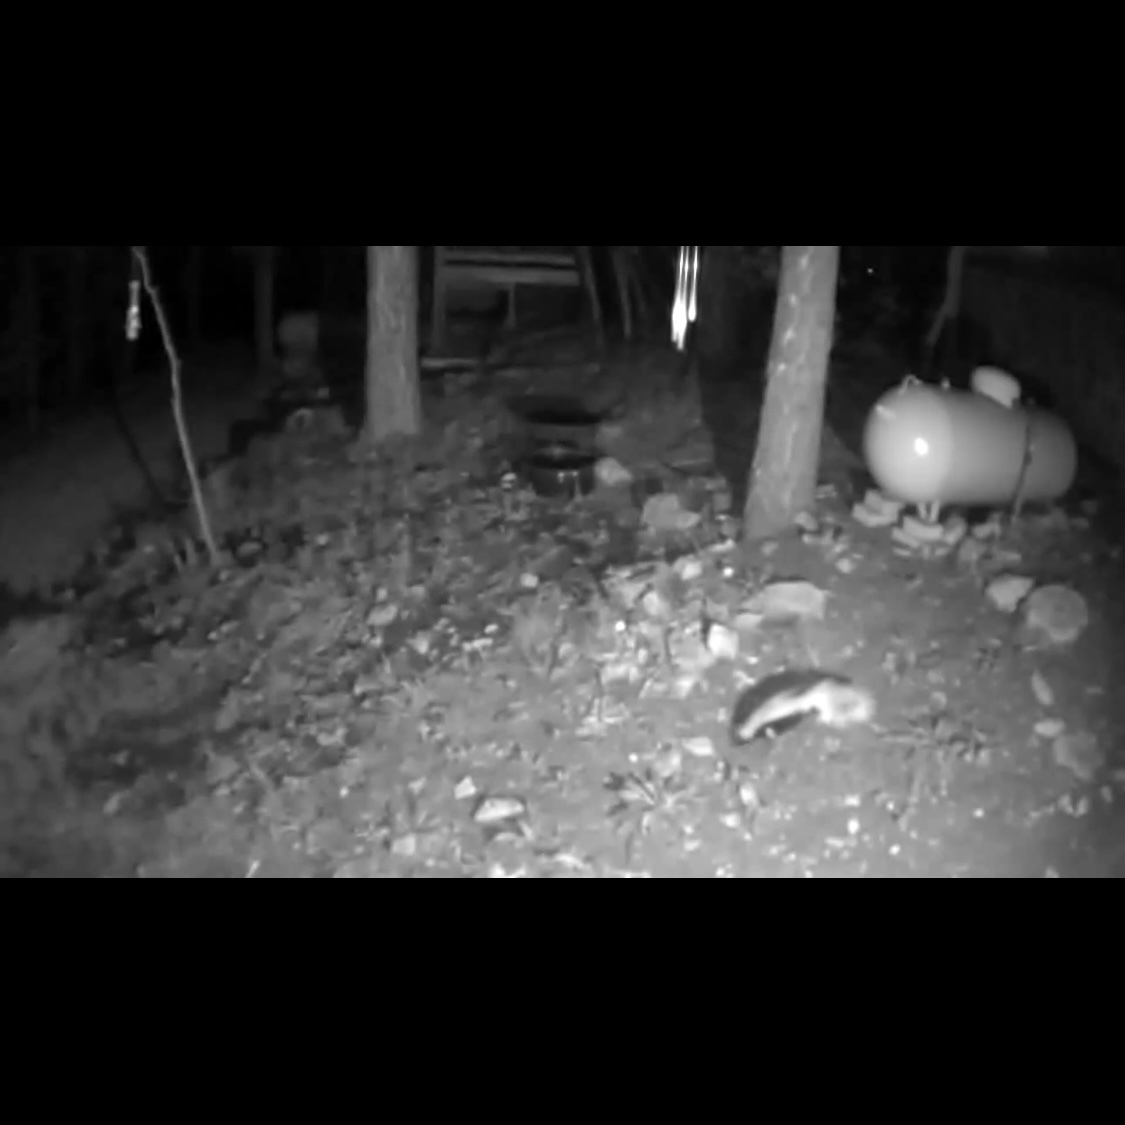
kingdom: Animalia
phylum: Chordata
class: Mammalia
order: Carnivora
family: Mephitidae
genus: Mephitis
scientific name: Mephitis mephitis
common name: Striped skunk
